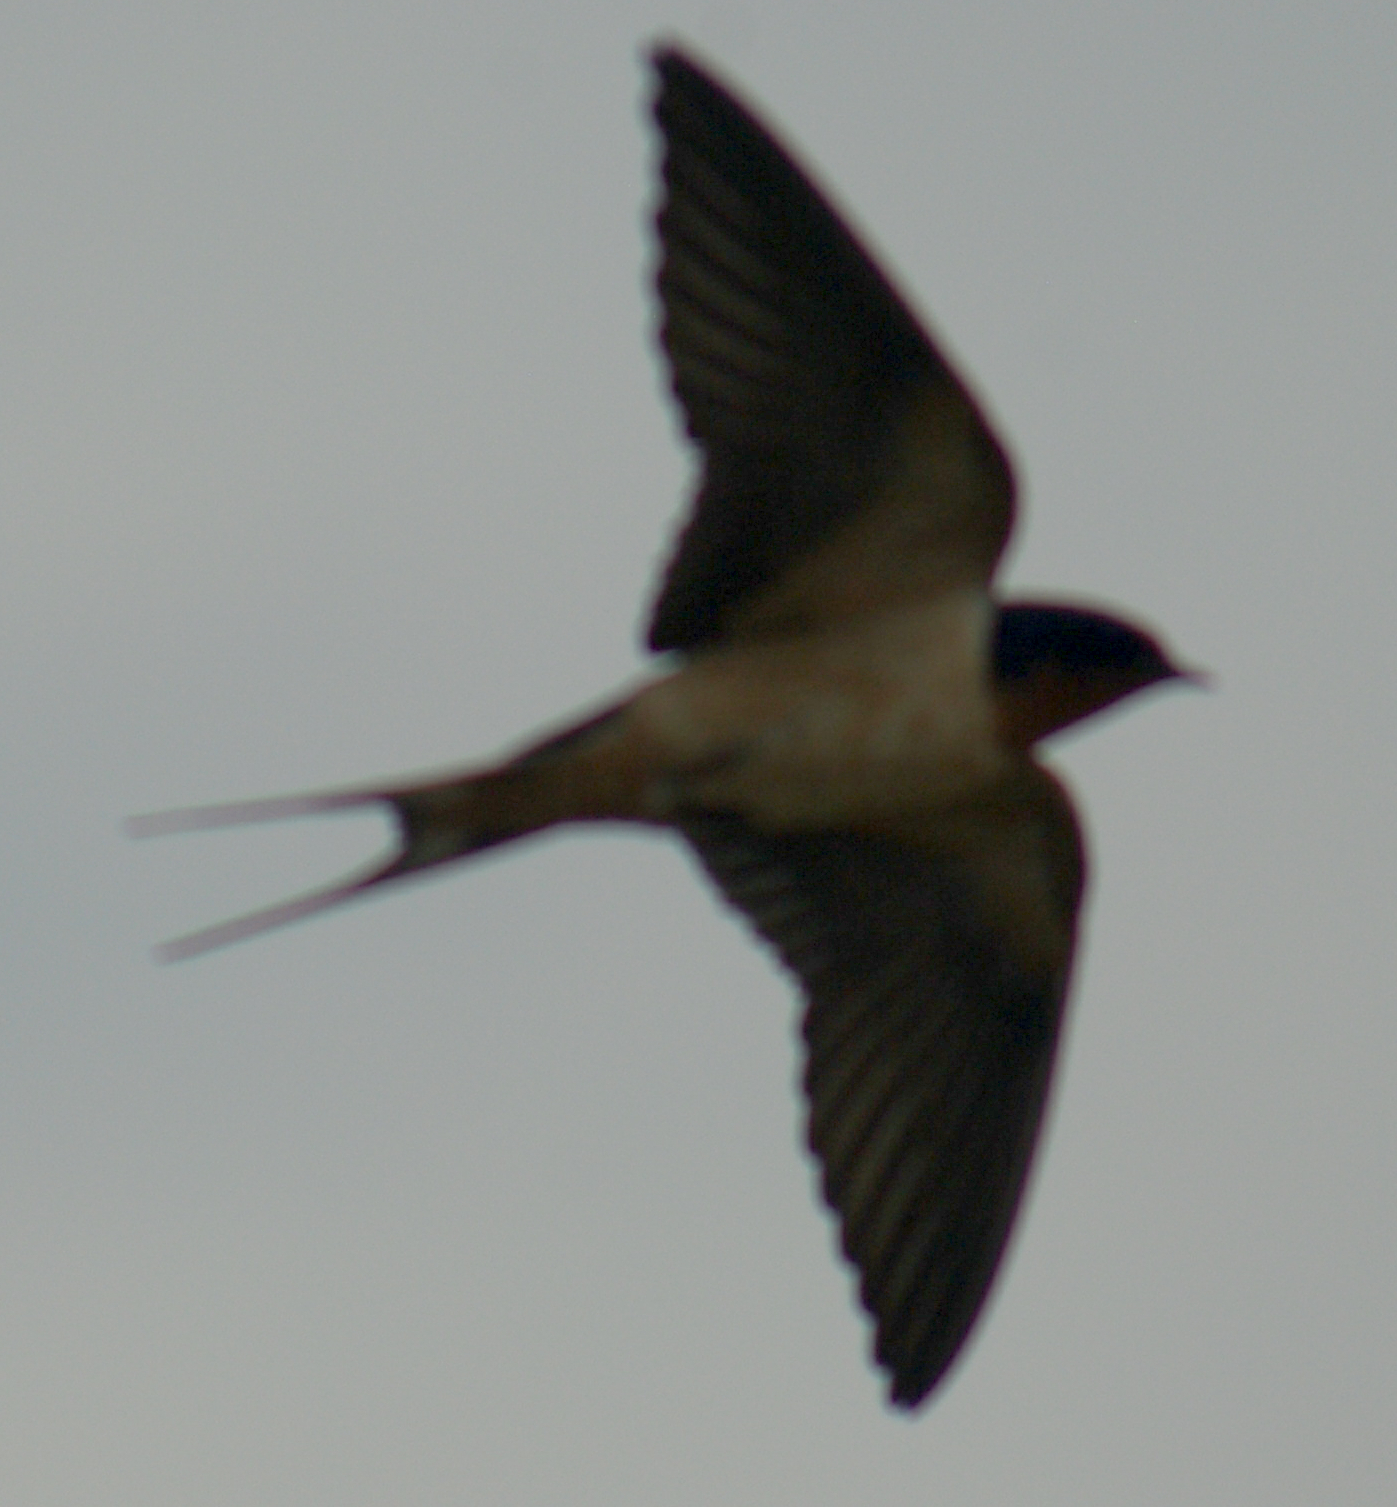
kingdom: Animalia
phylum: Chordata
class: Aves
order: Passeriformes
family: Hirundinidae
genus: Hirundo
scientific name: Hirundo rustica
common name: Barn swallow
